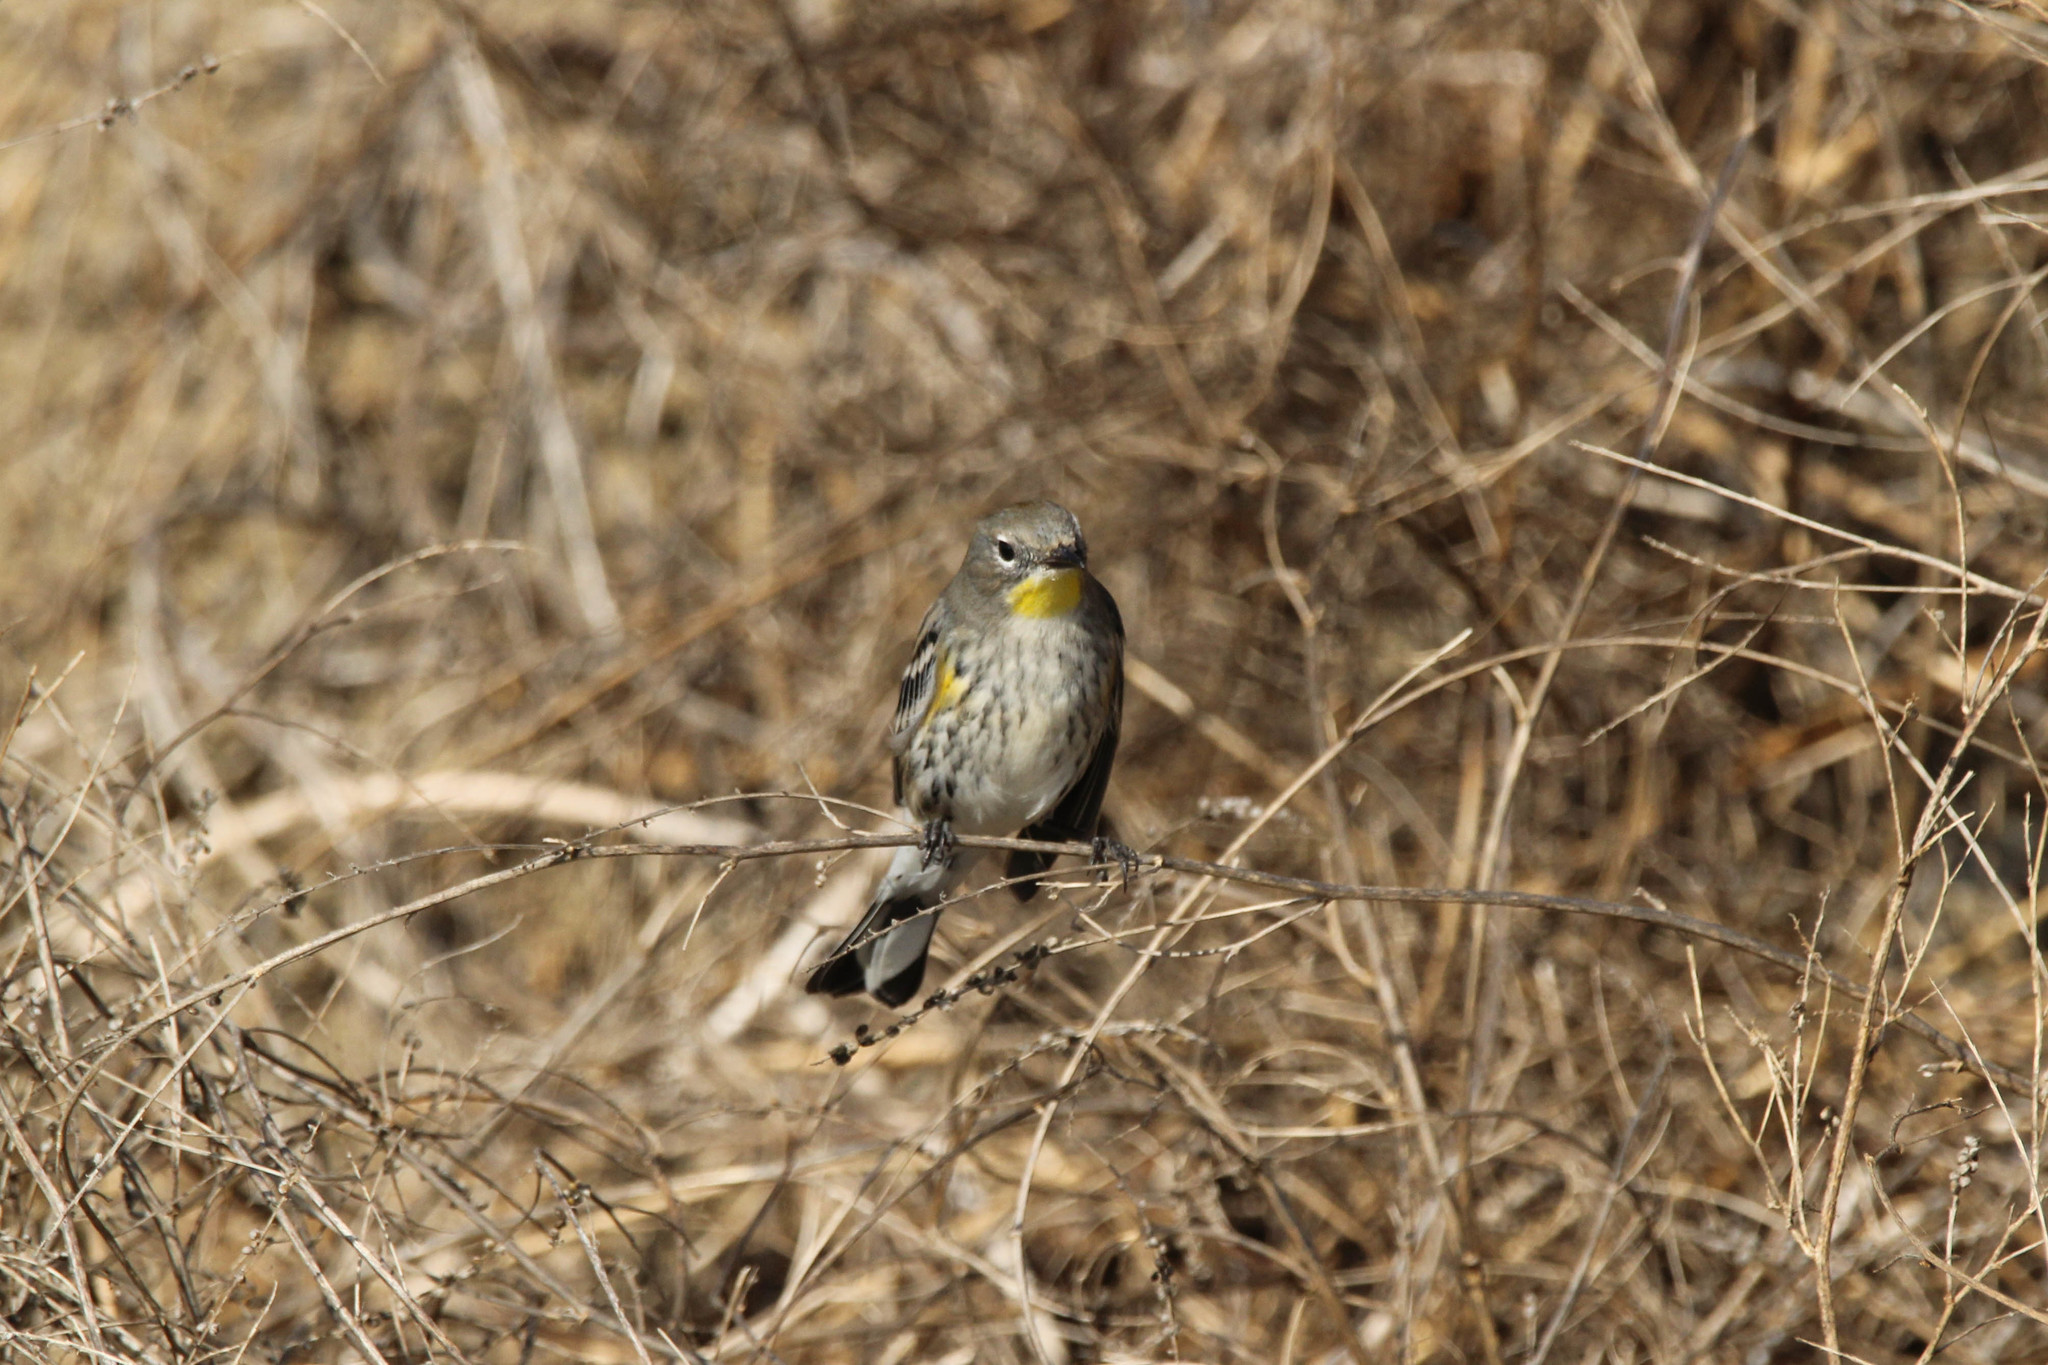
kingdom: Animalia
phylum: Chordata
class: Aves
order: Passeriformes
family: Parulidae
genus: Setophaga
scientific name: Setophaga coronata
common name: Myrtle warbler
